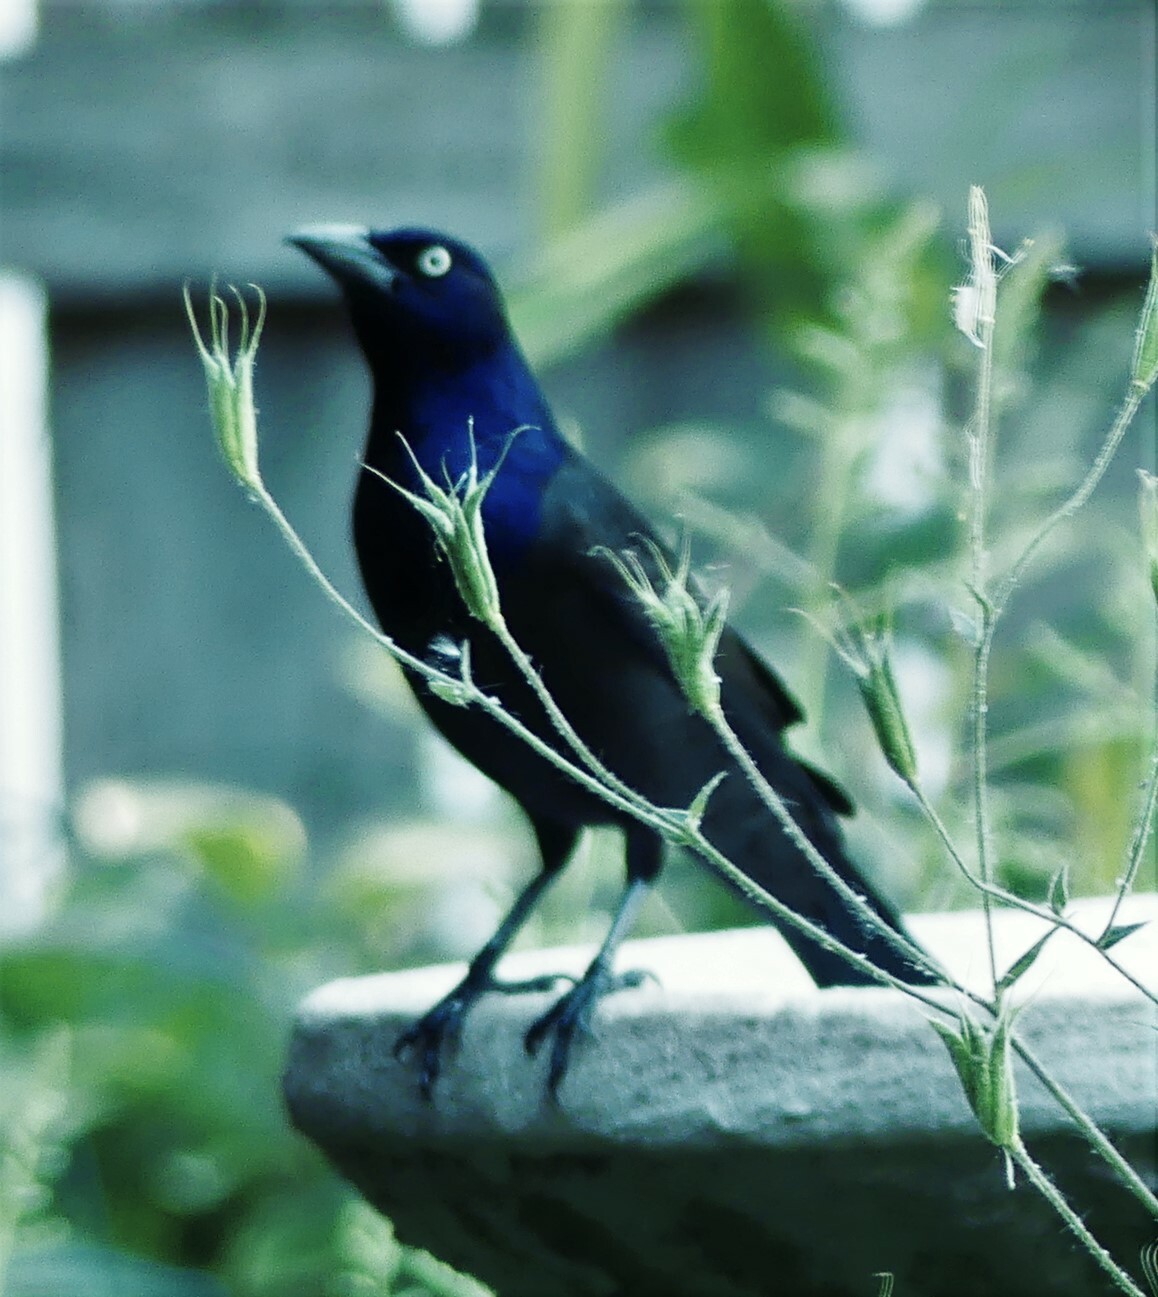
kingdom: Animalia
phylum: Chordata
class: Aves
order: Passeriformes
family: Icteridae
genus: Quiscalus
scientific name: Quiscalus quiscula
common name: Common grackle
